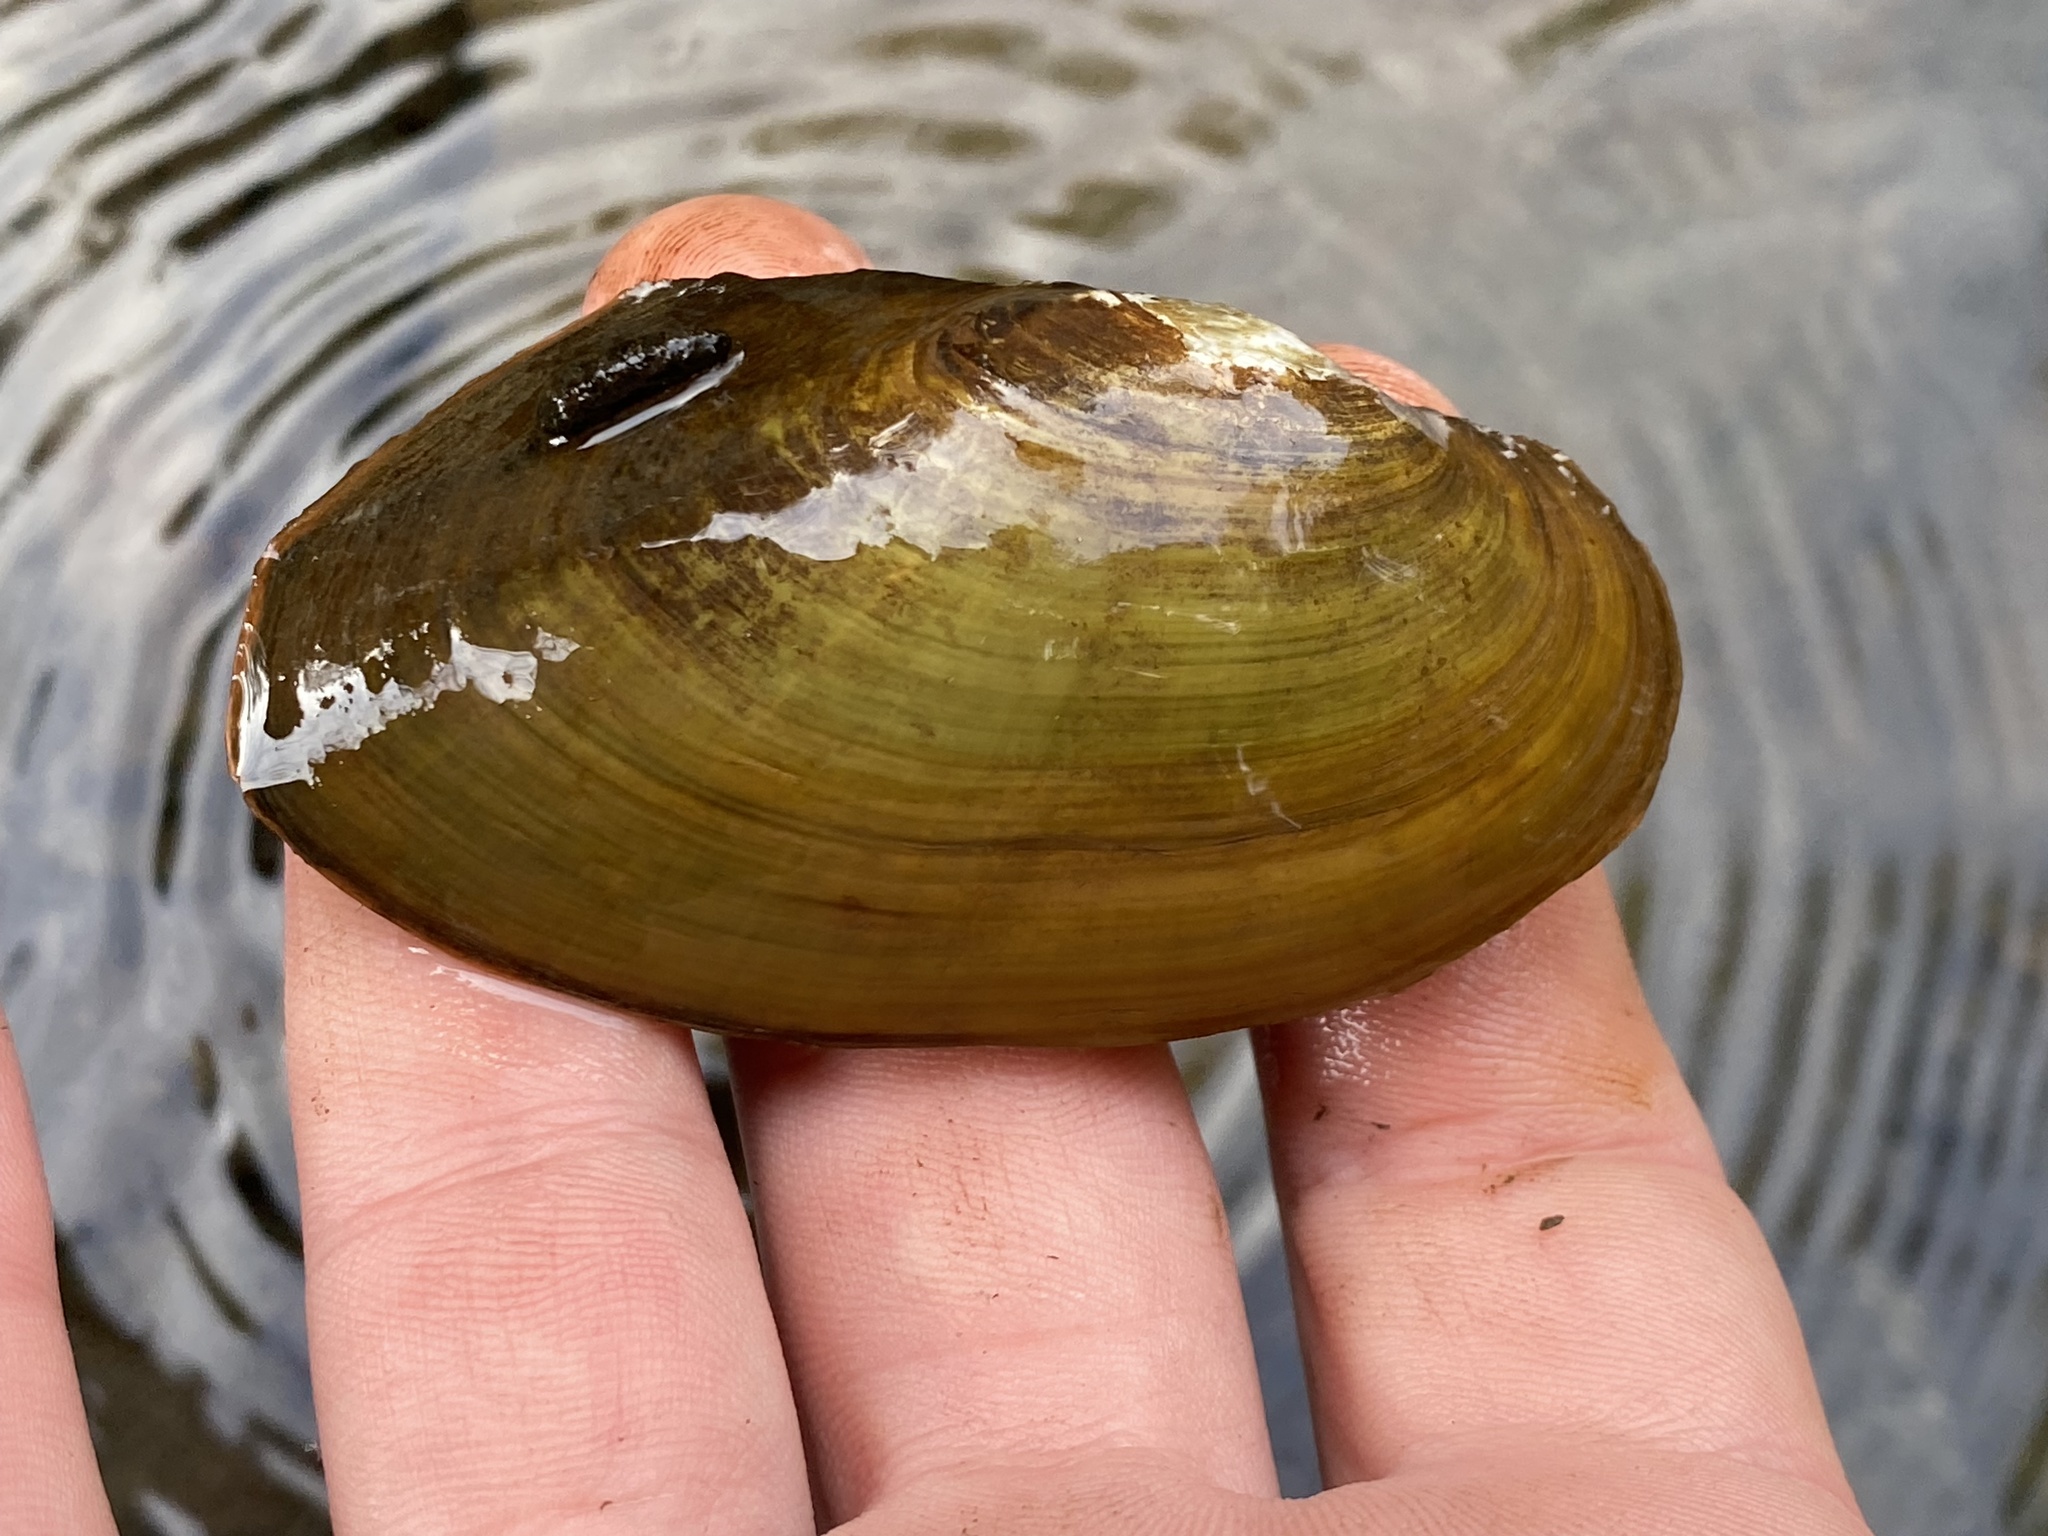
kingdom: Animalia
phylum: Mollusca
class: Bivalvia
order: Unionida
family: Unionidae
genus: Pyganodon
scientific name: Pyganodon cataracta
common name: Eastern floater
